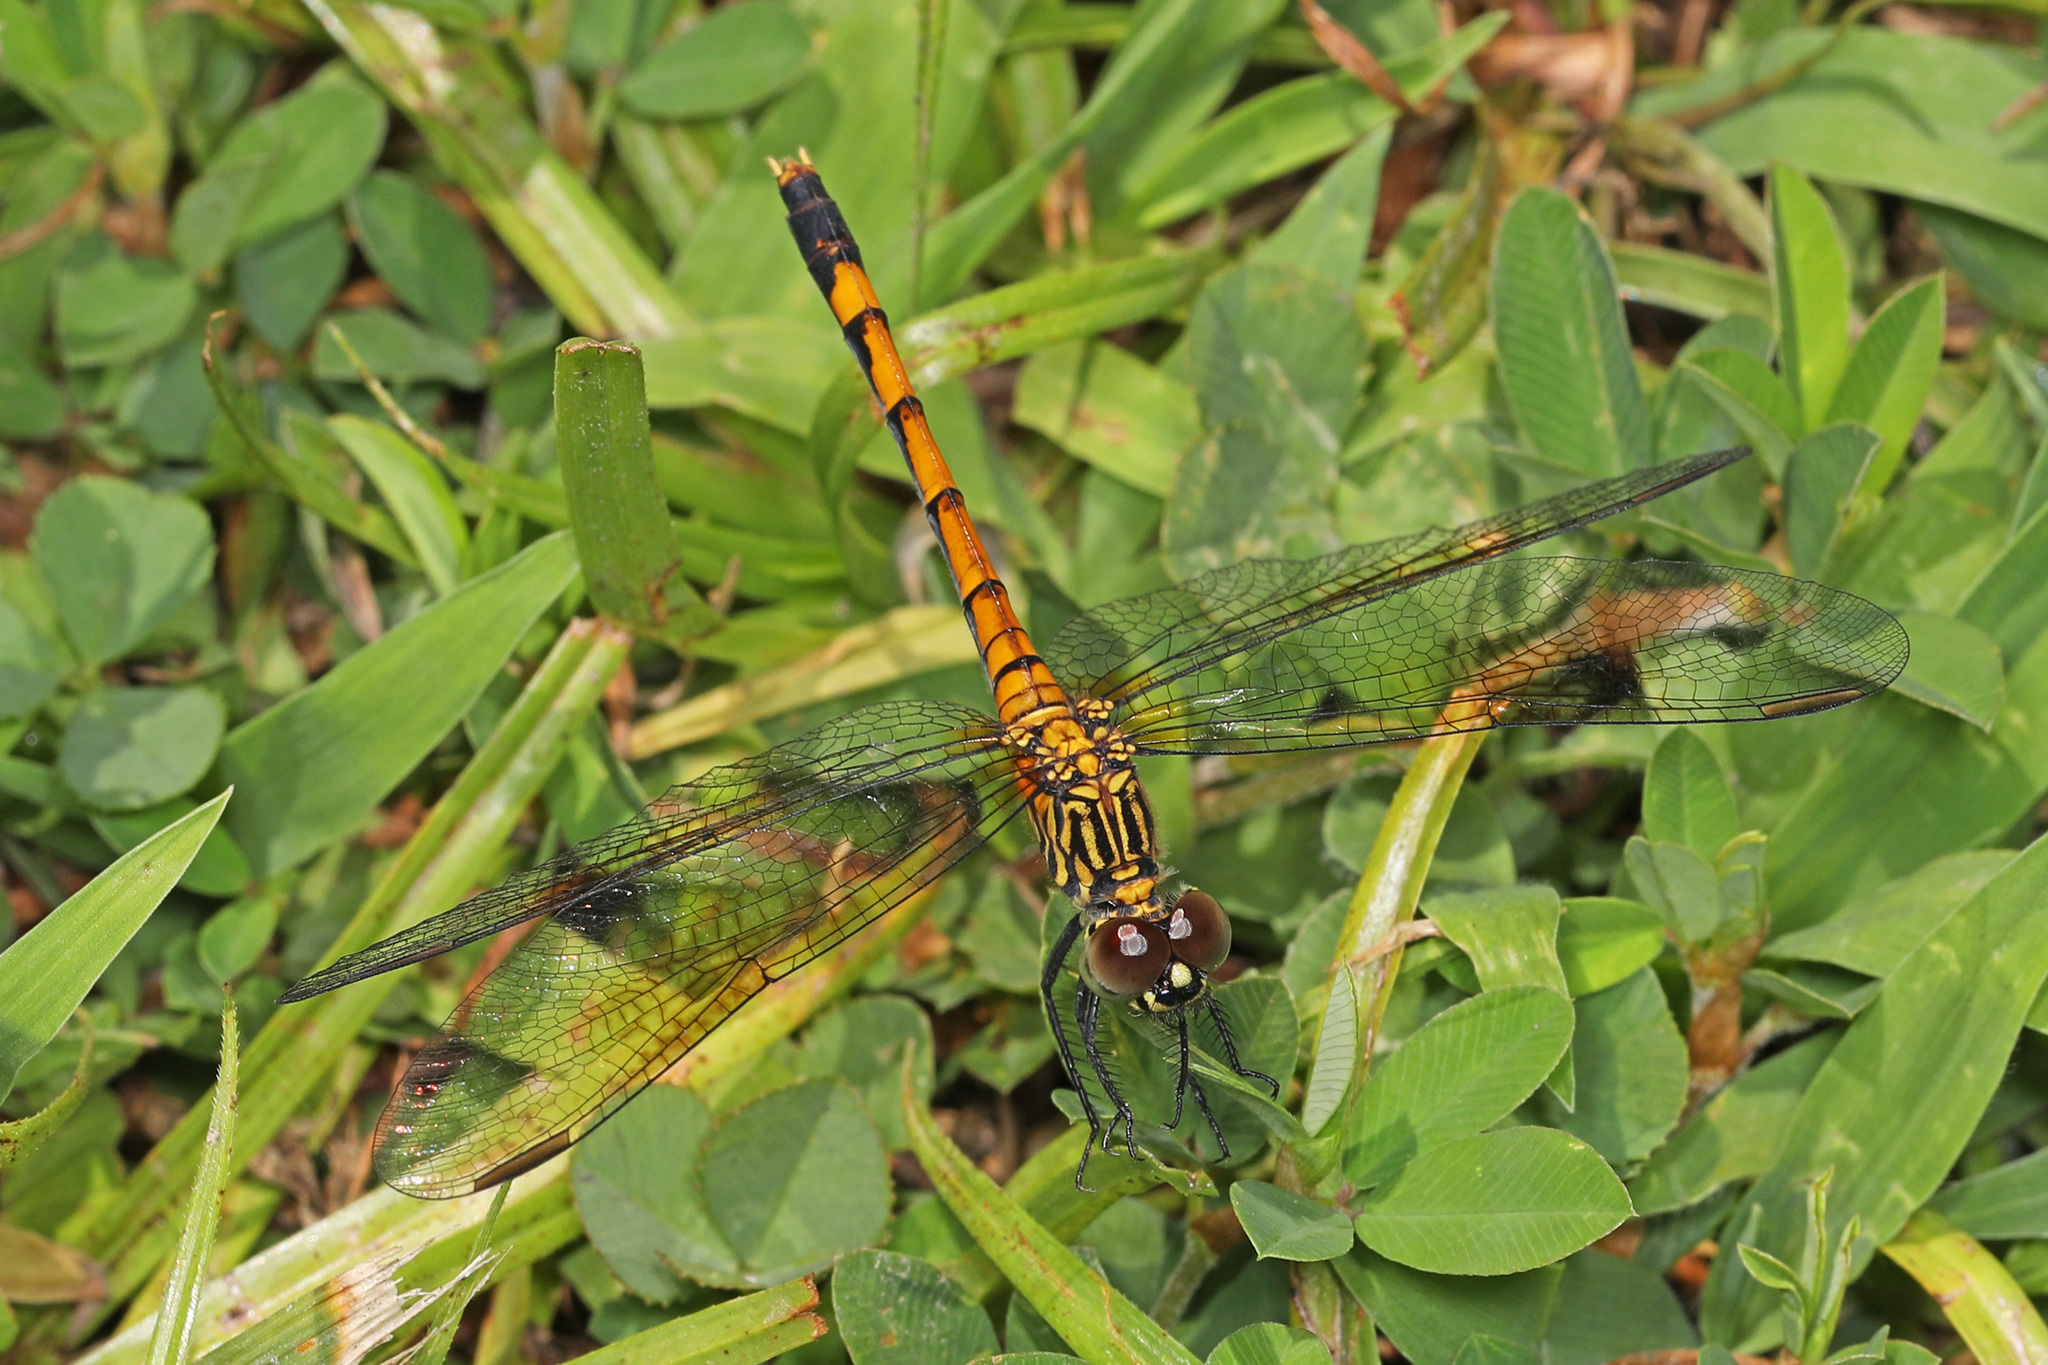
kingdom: Animalia
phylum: Arthropoda
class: Insecta
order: Odonata
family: Libellulidae
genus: Erythrodiplax
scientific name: Erythrodiplax berenice
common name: Seaside dragonlet
